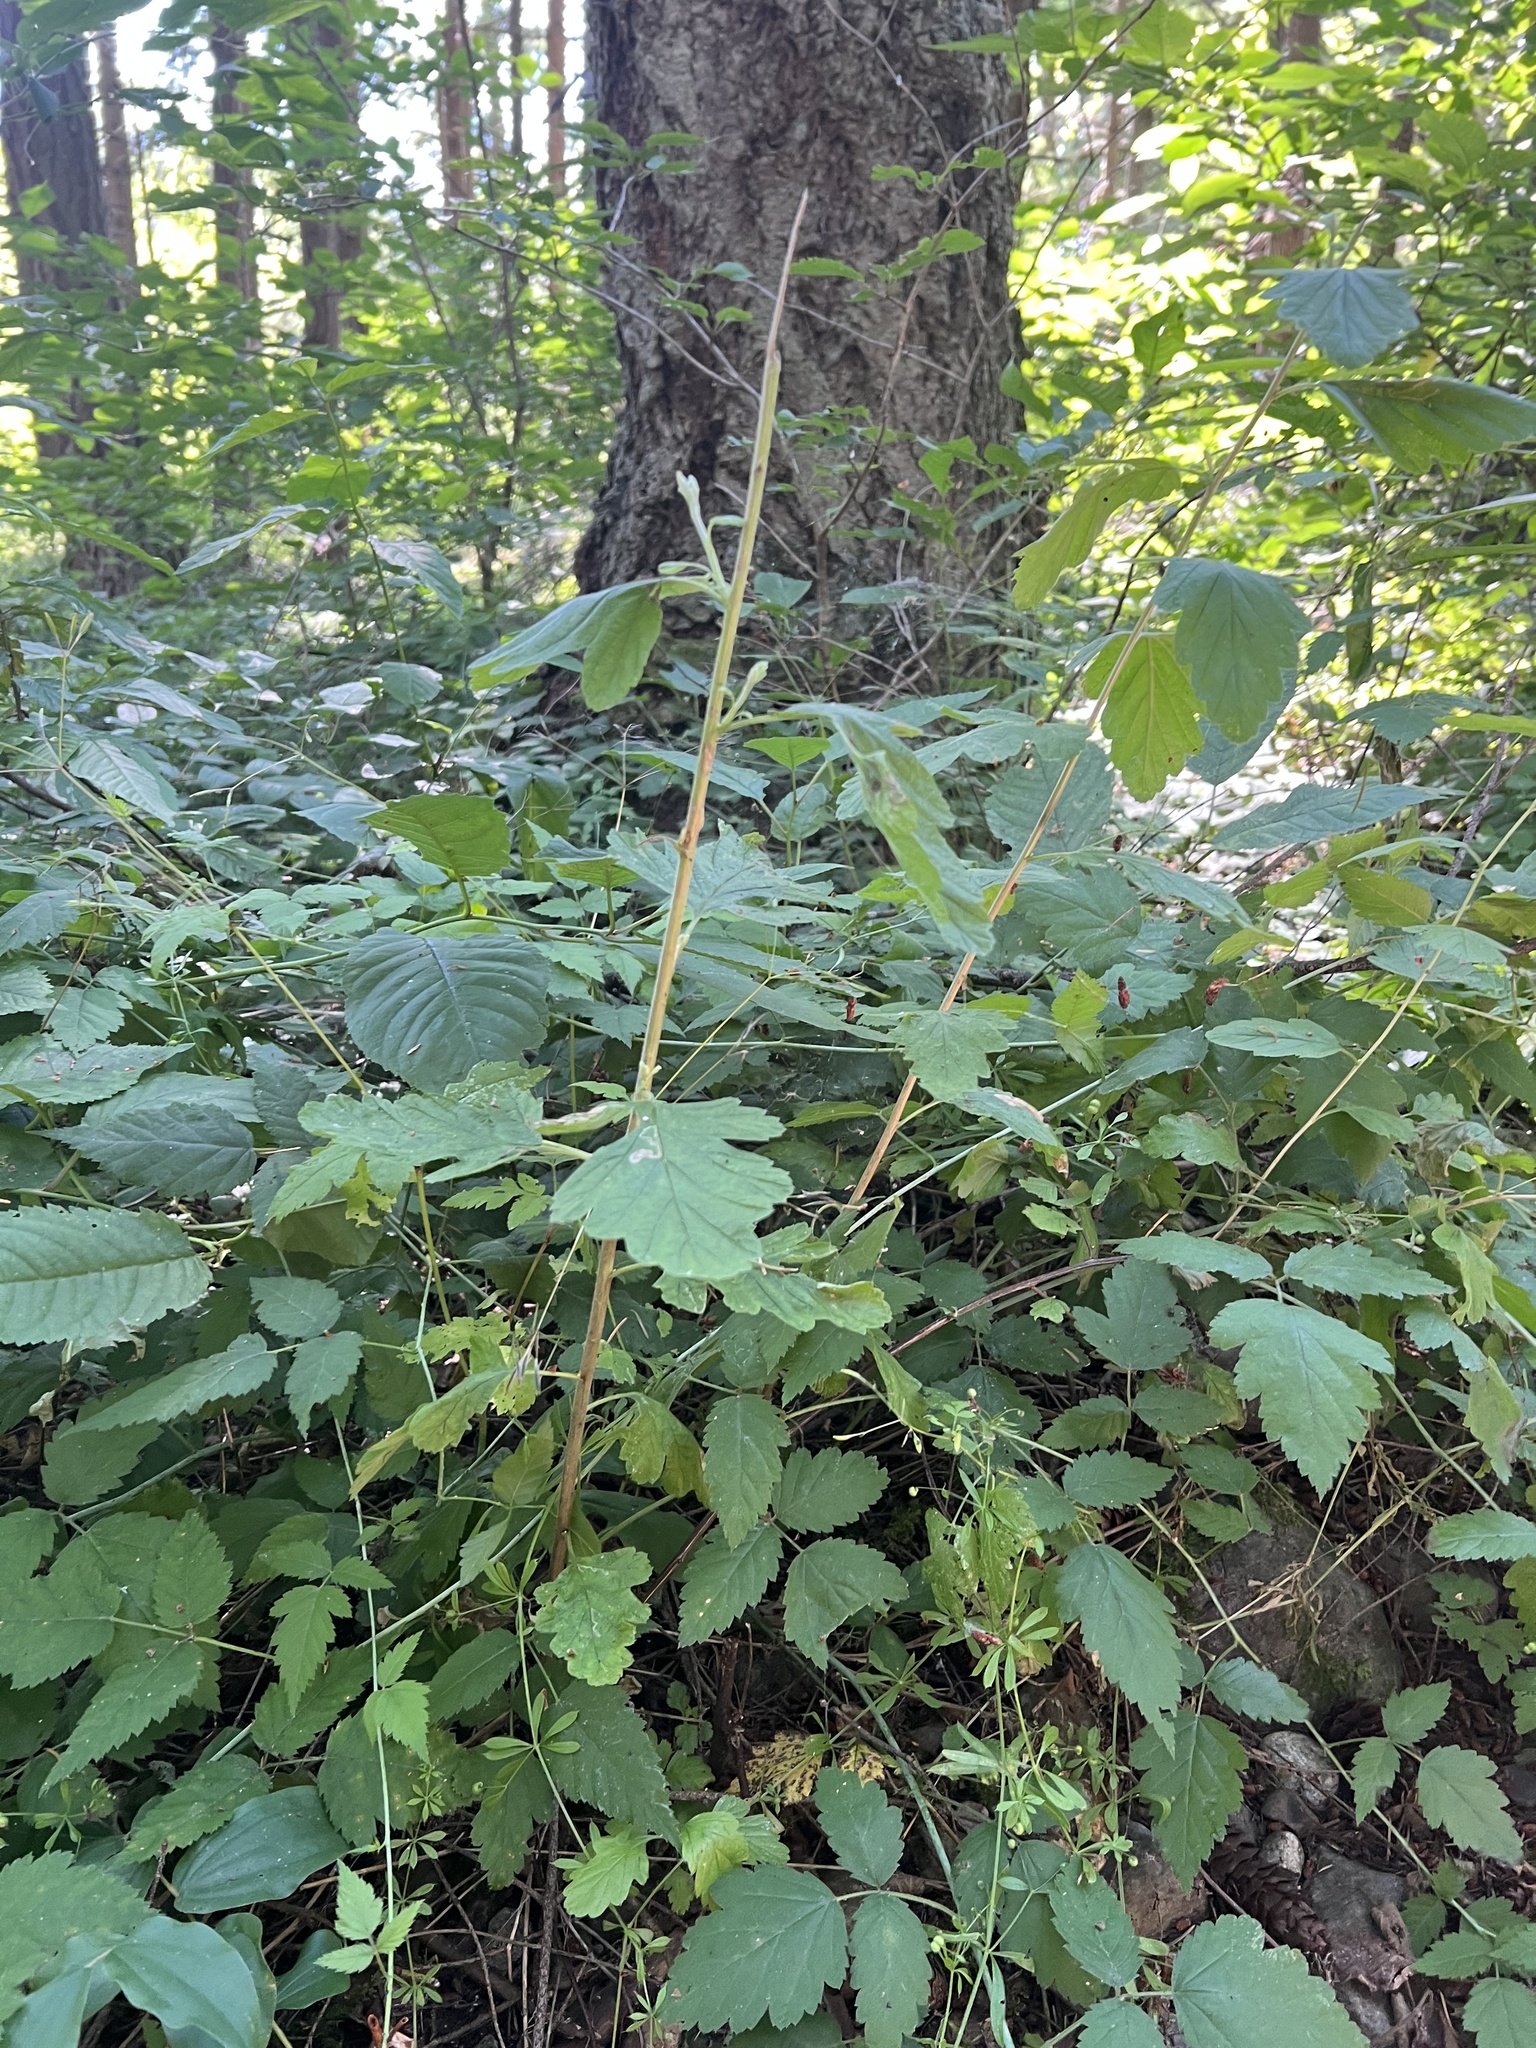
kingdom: Plantae
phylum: Tracheophyta
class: Magnoliopsida
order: Rosales
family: Rosaceae
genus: Holodiscus
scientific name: Holodiscus discolor
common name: Oceanspray
